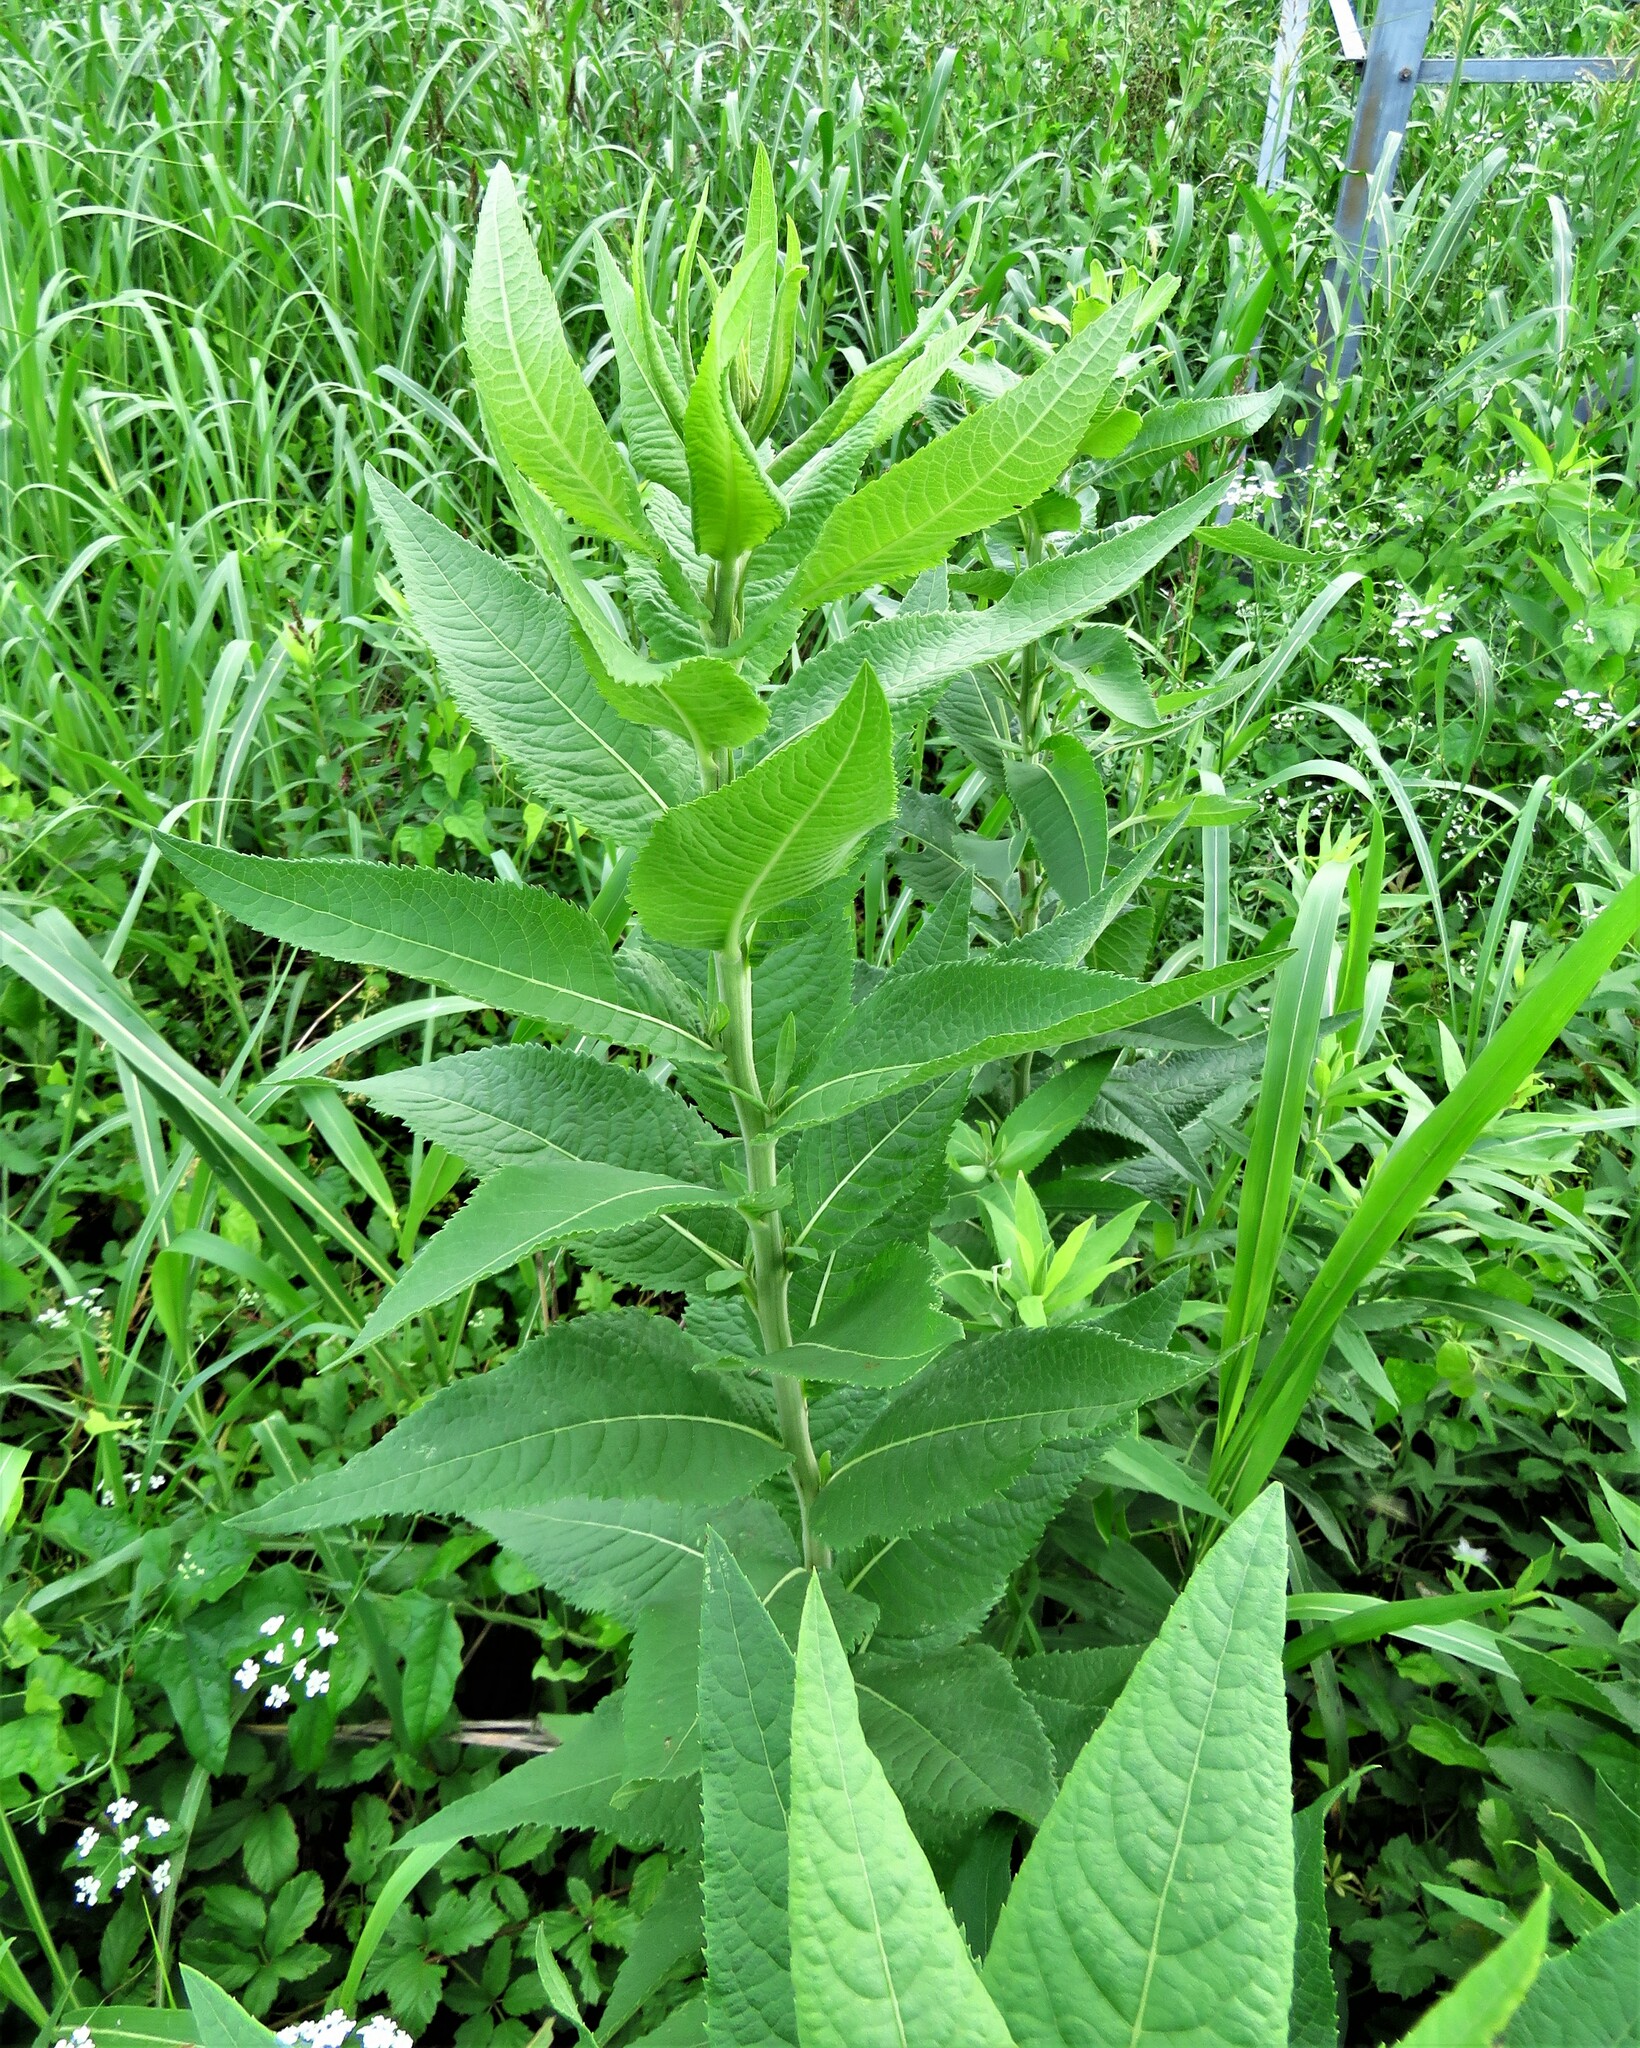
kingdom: Plantae
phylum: Tracheophyta
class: Magnoliopsida
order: Asterales
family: Asteraceae
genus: Vernonia
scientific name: Vernonia baldwinii
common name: Western ironweed
